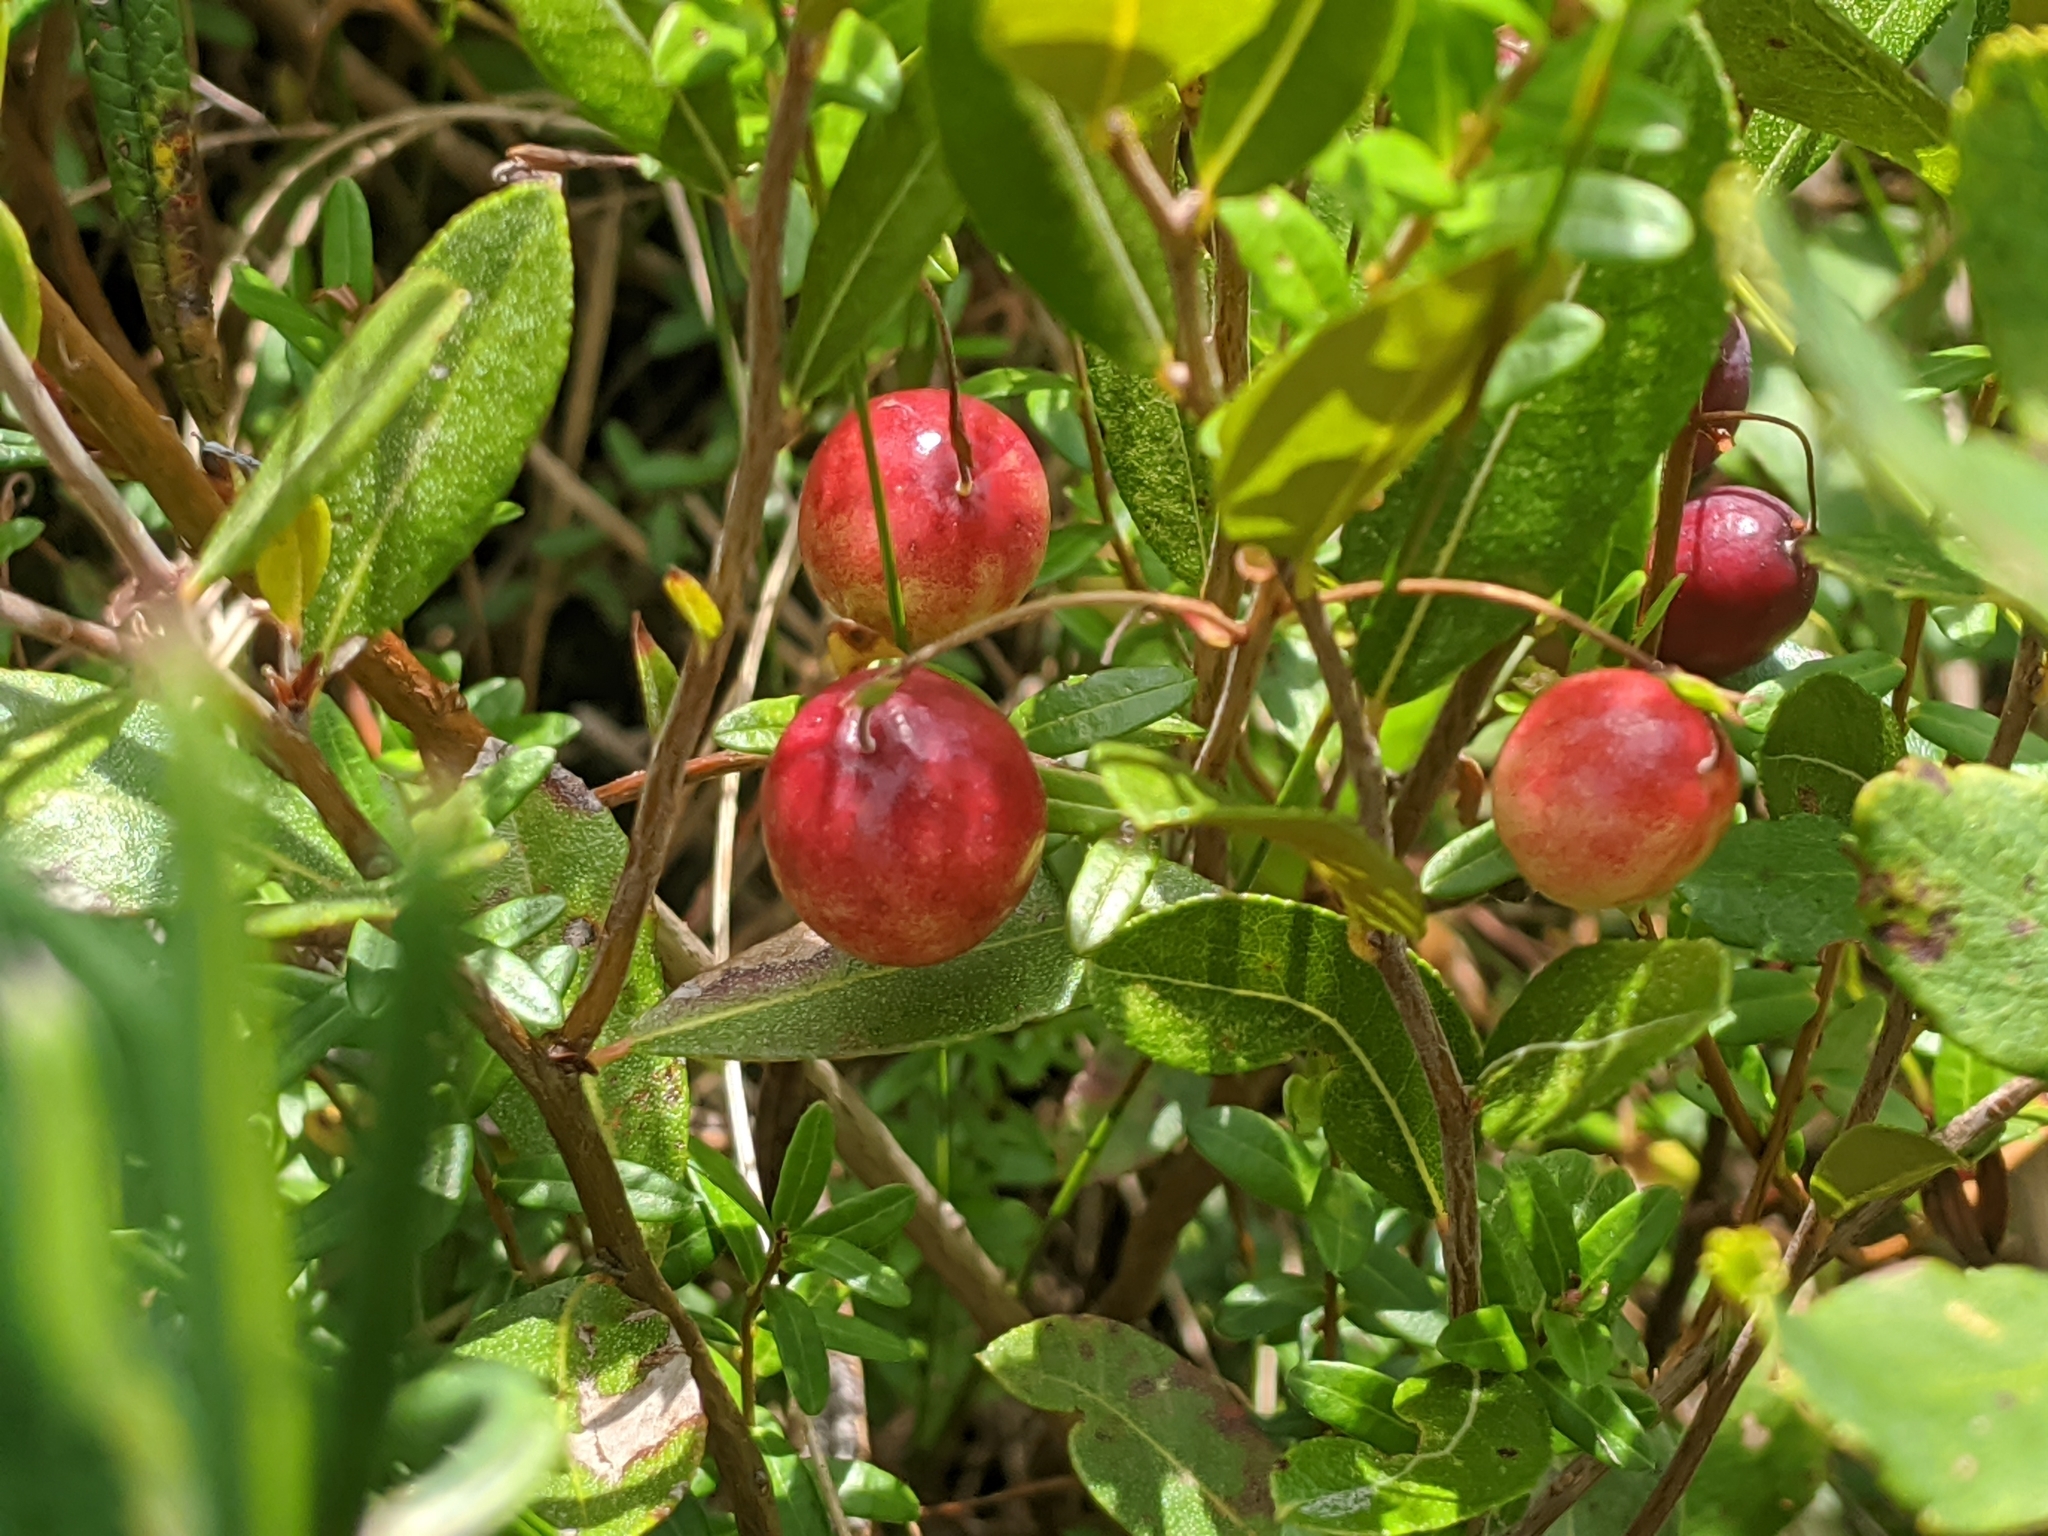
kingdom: Plantae
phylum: Tracheophyta
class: Magnoliopsida
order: Ericales
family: Ericaceae
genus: Vaccinium
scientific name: Vaccinium macrocarpon
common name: American cranberry
